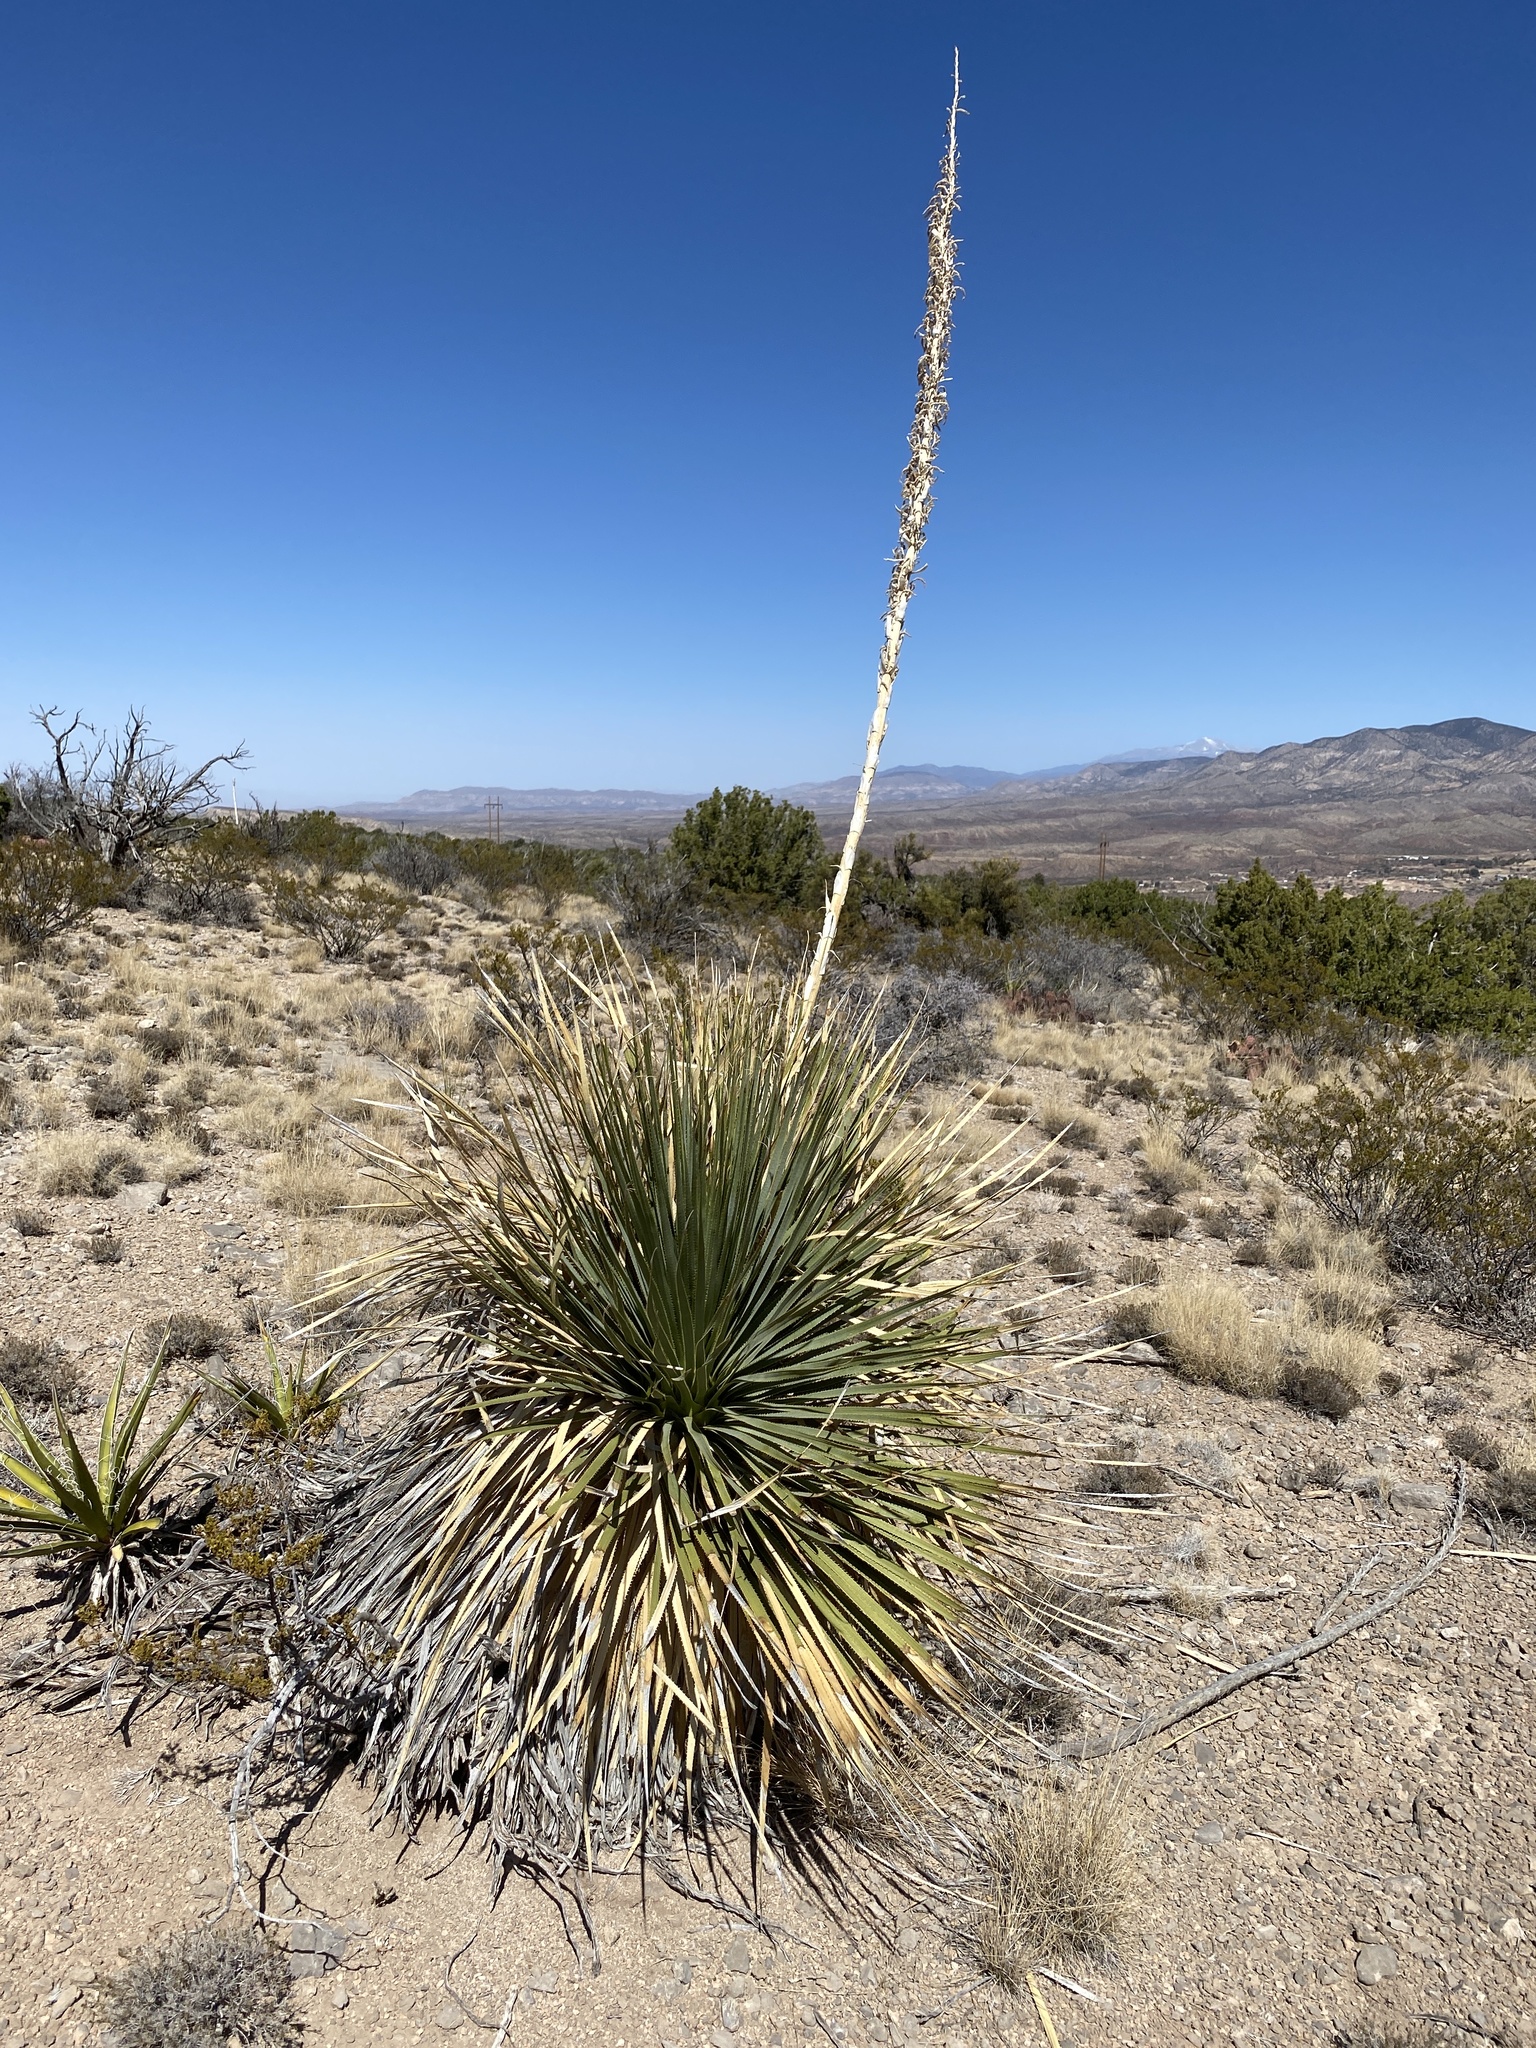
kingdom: Plantae
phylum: Tracheophyta
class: Liliopsida
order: Asparagales
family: Asparagaceae
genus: Dasylirion
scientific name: Dasylirion wheeleri
